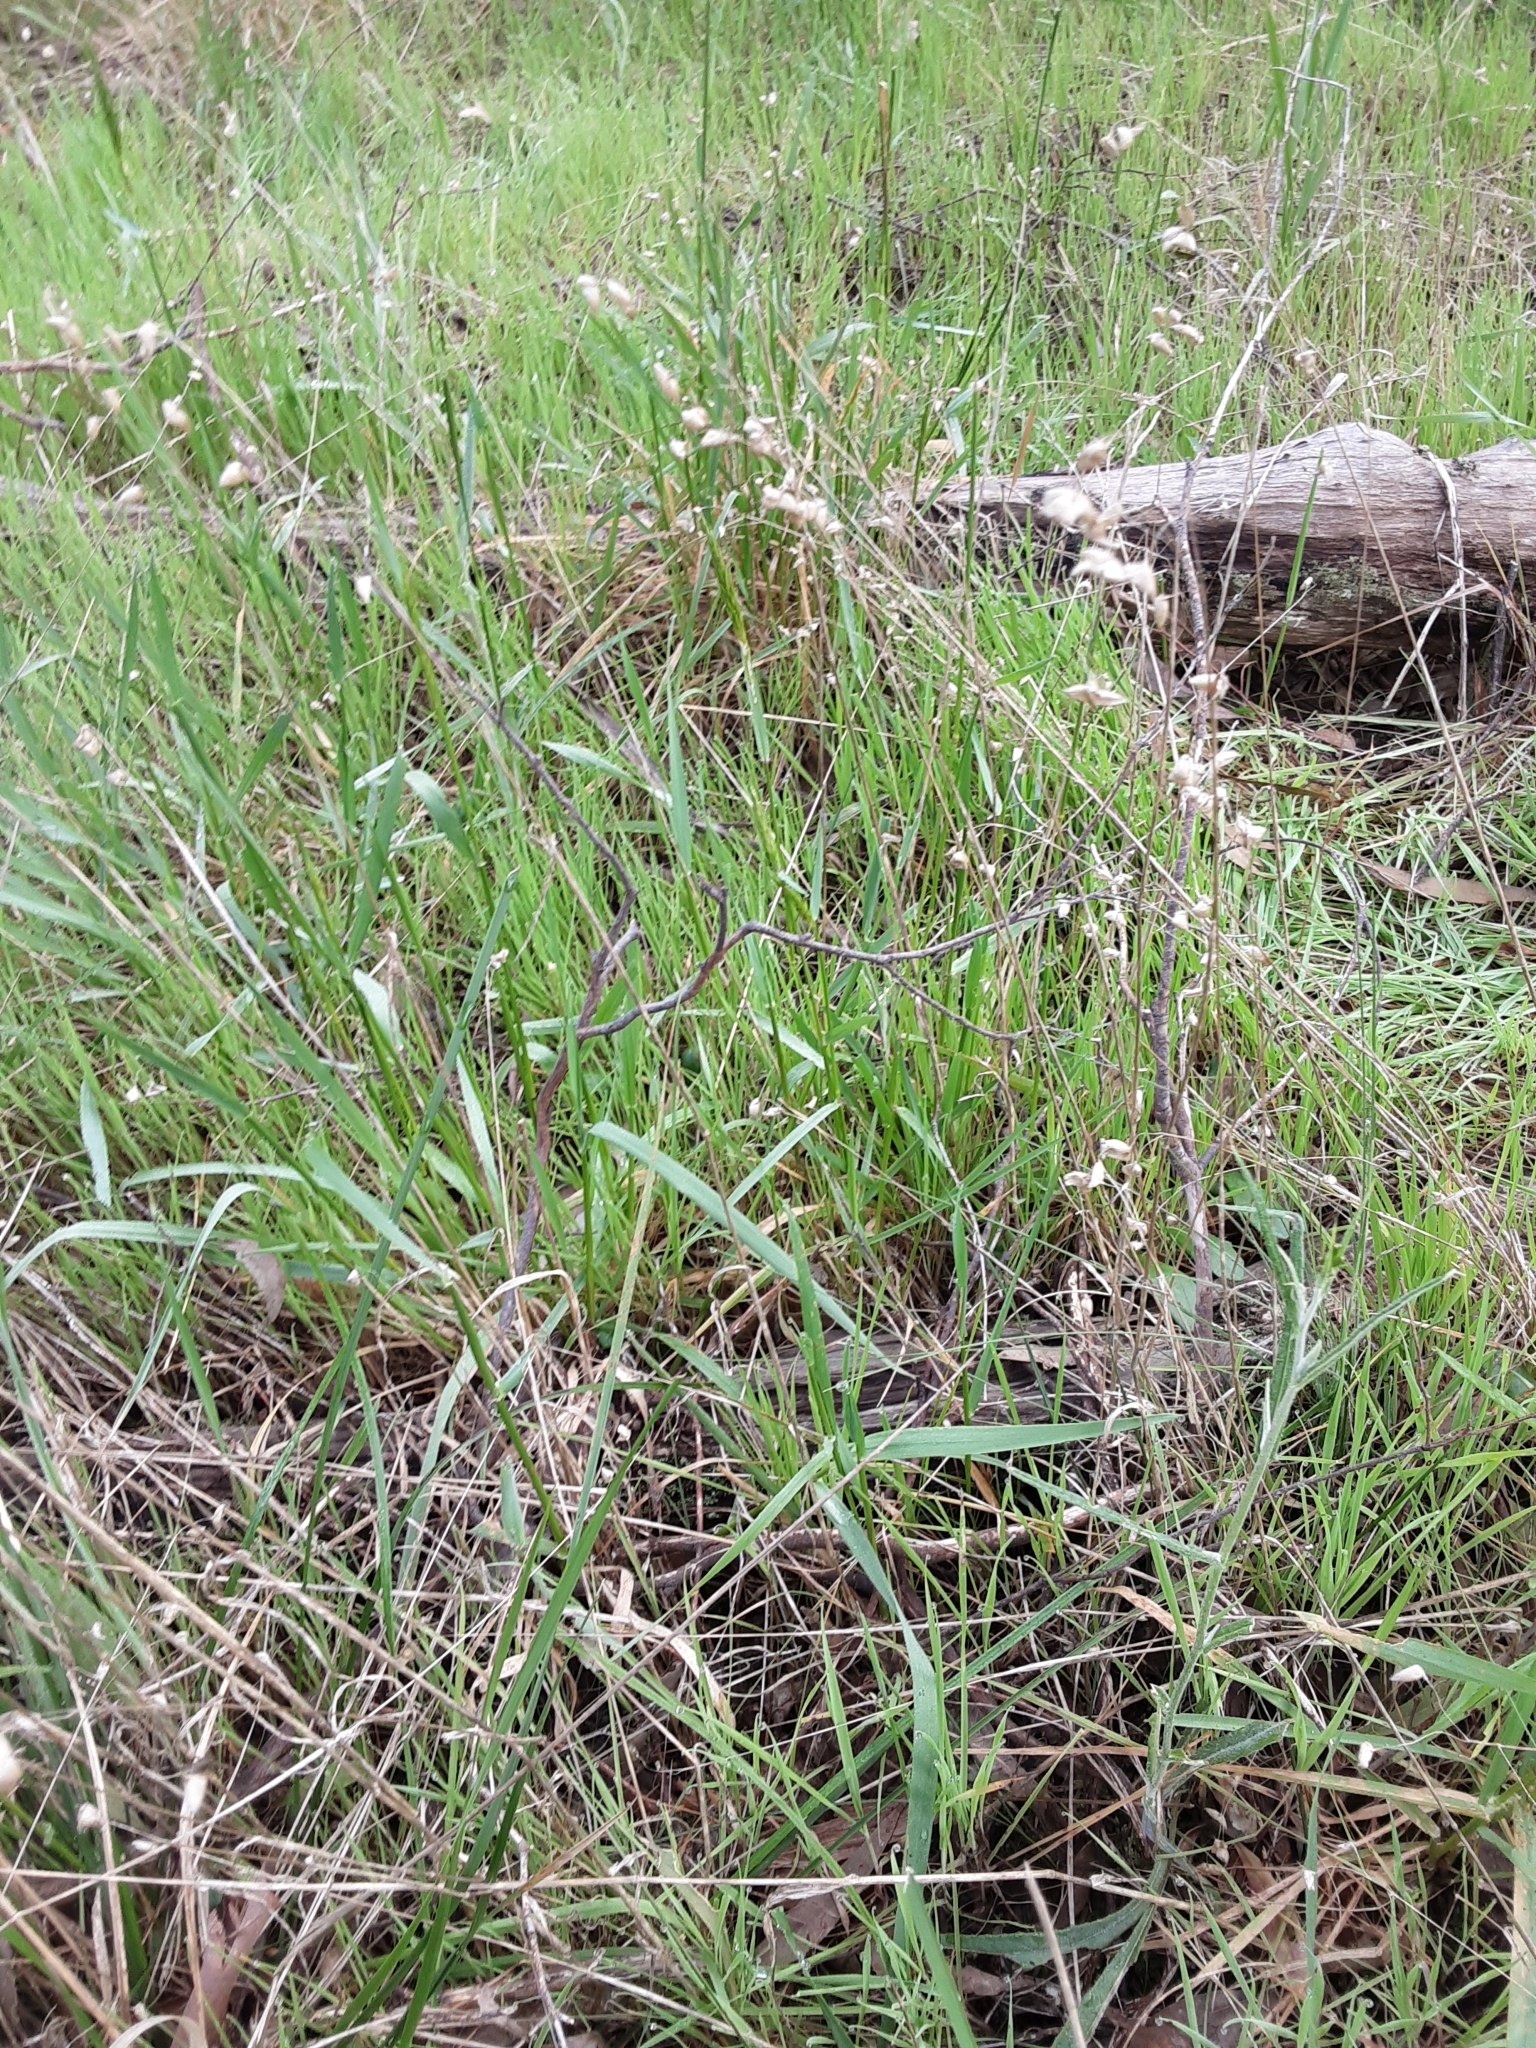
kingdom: Plantae
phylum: Tracheophyta
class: Liliopsida
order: Poales
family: Poaceae
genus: Briza
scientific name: Briza maxima
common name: Big quakinggrass
